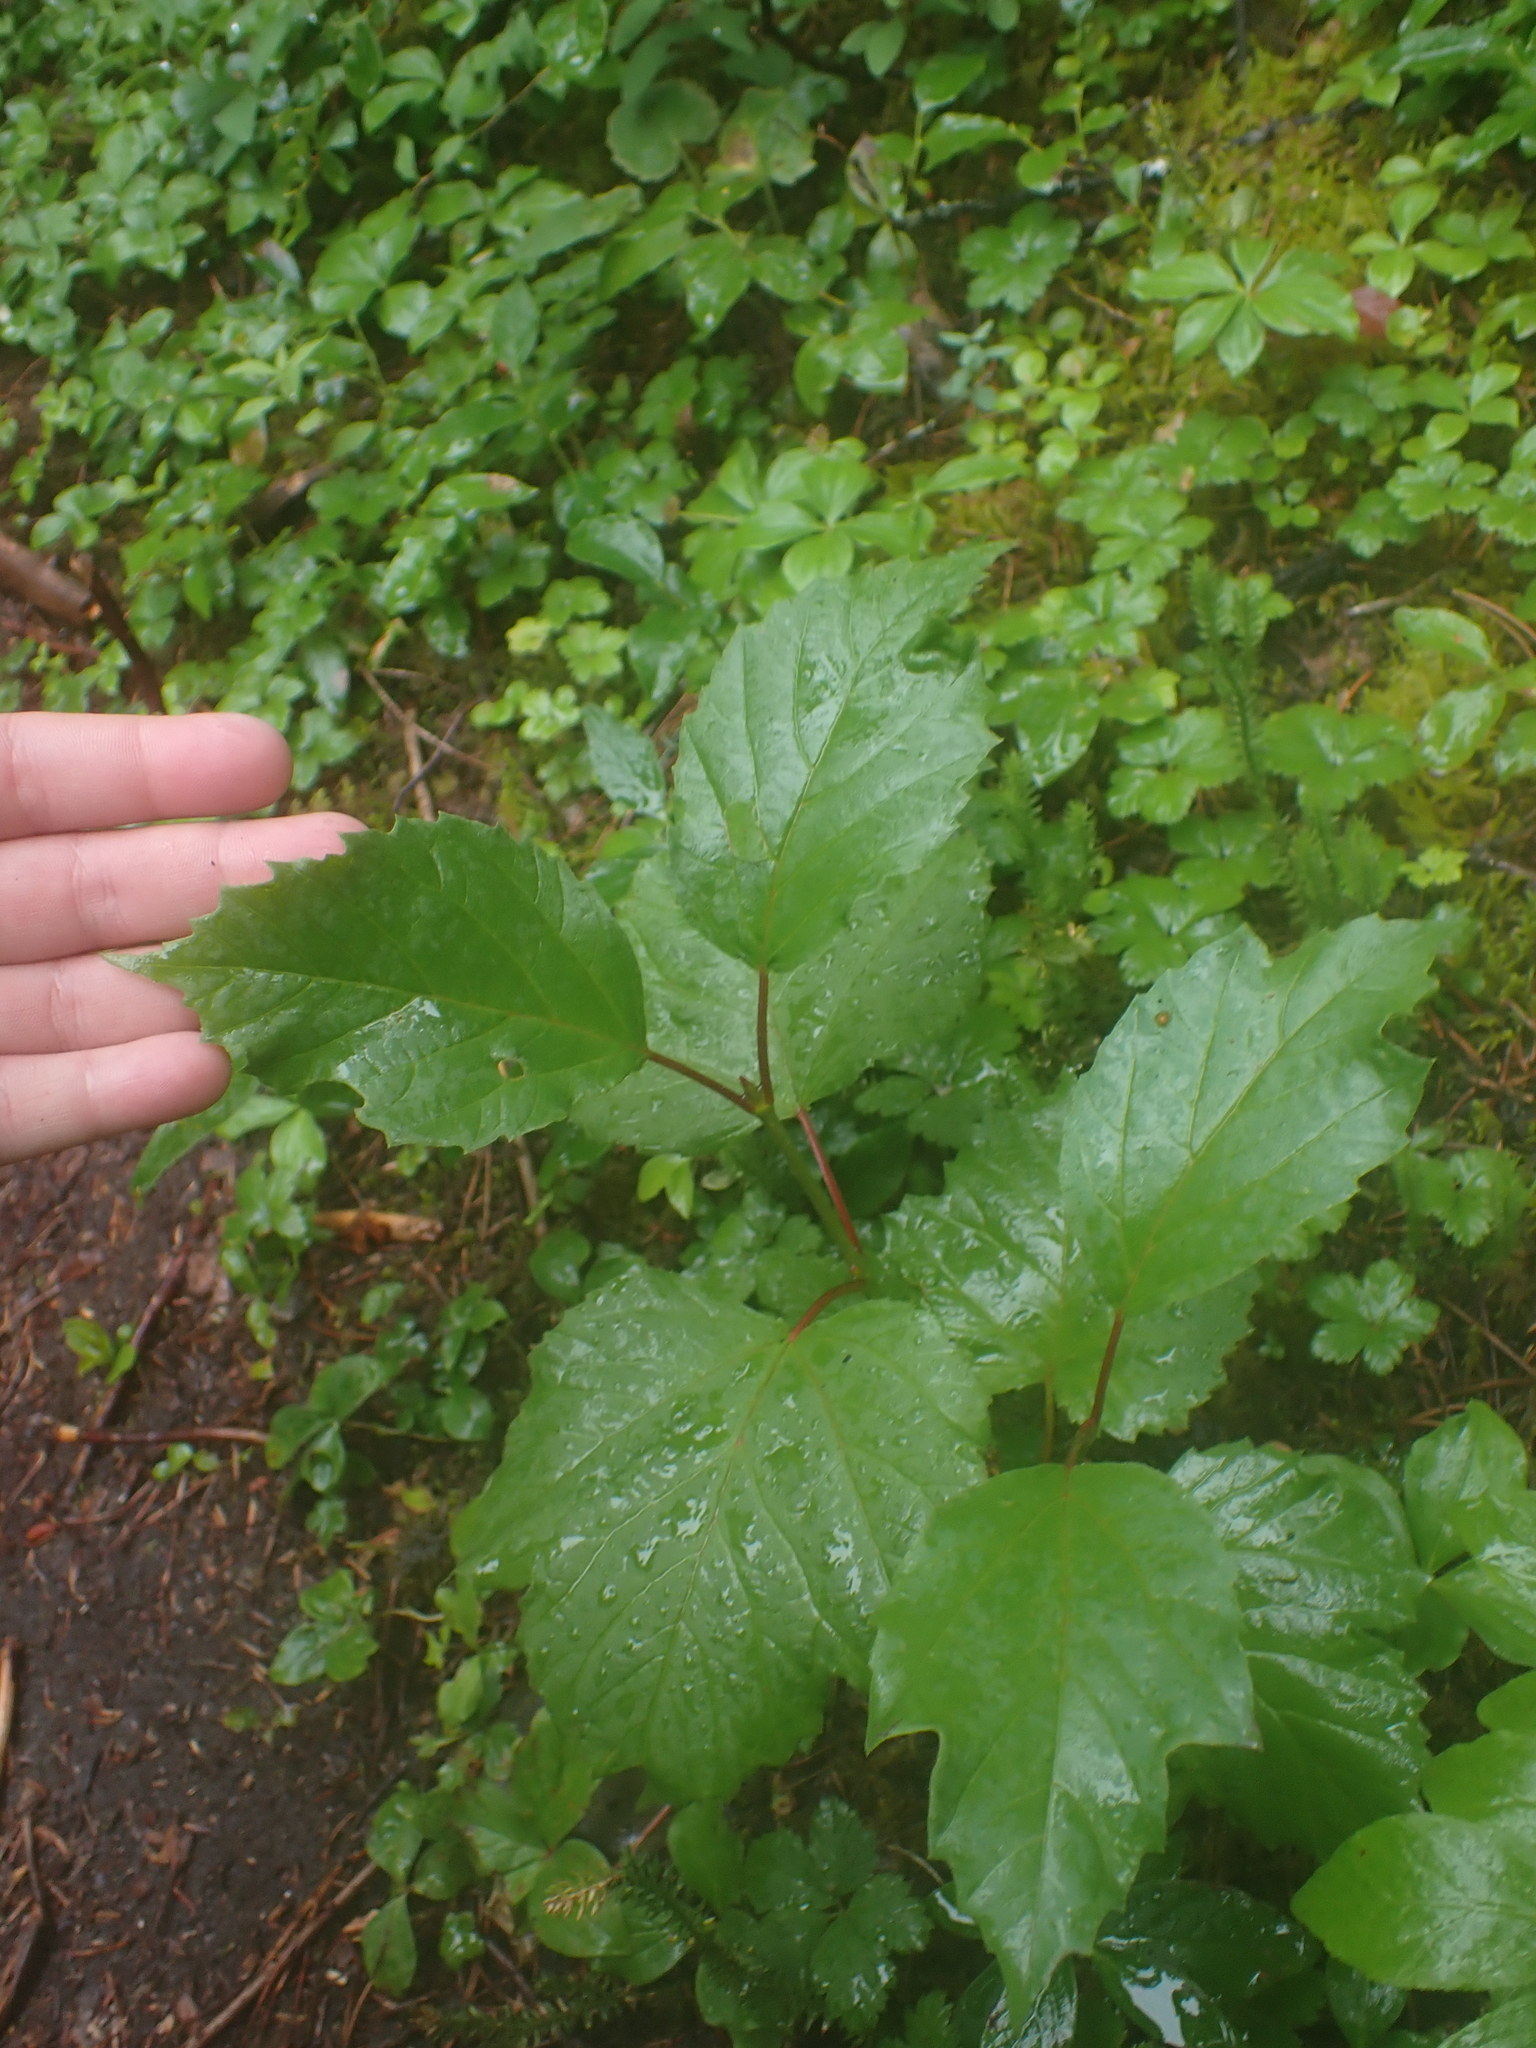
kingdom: Plantae
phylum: Tracheophyta
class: Magnoliopsida
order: Dipsacales
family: Viburnaceae
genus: Viburnum
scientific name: Viburnum edule
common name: Mooseberry
